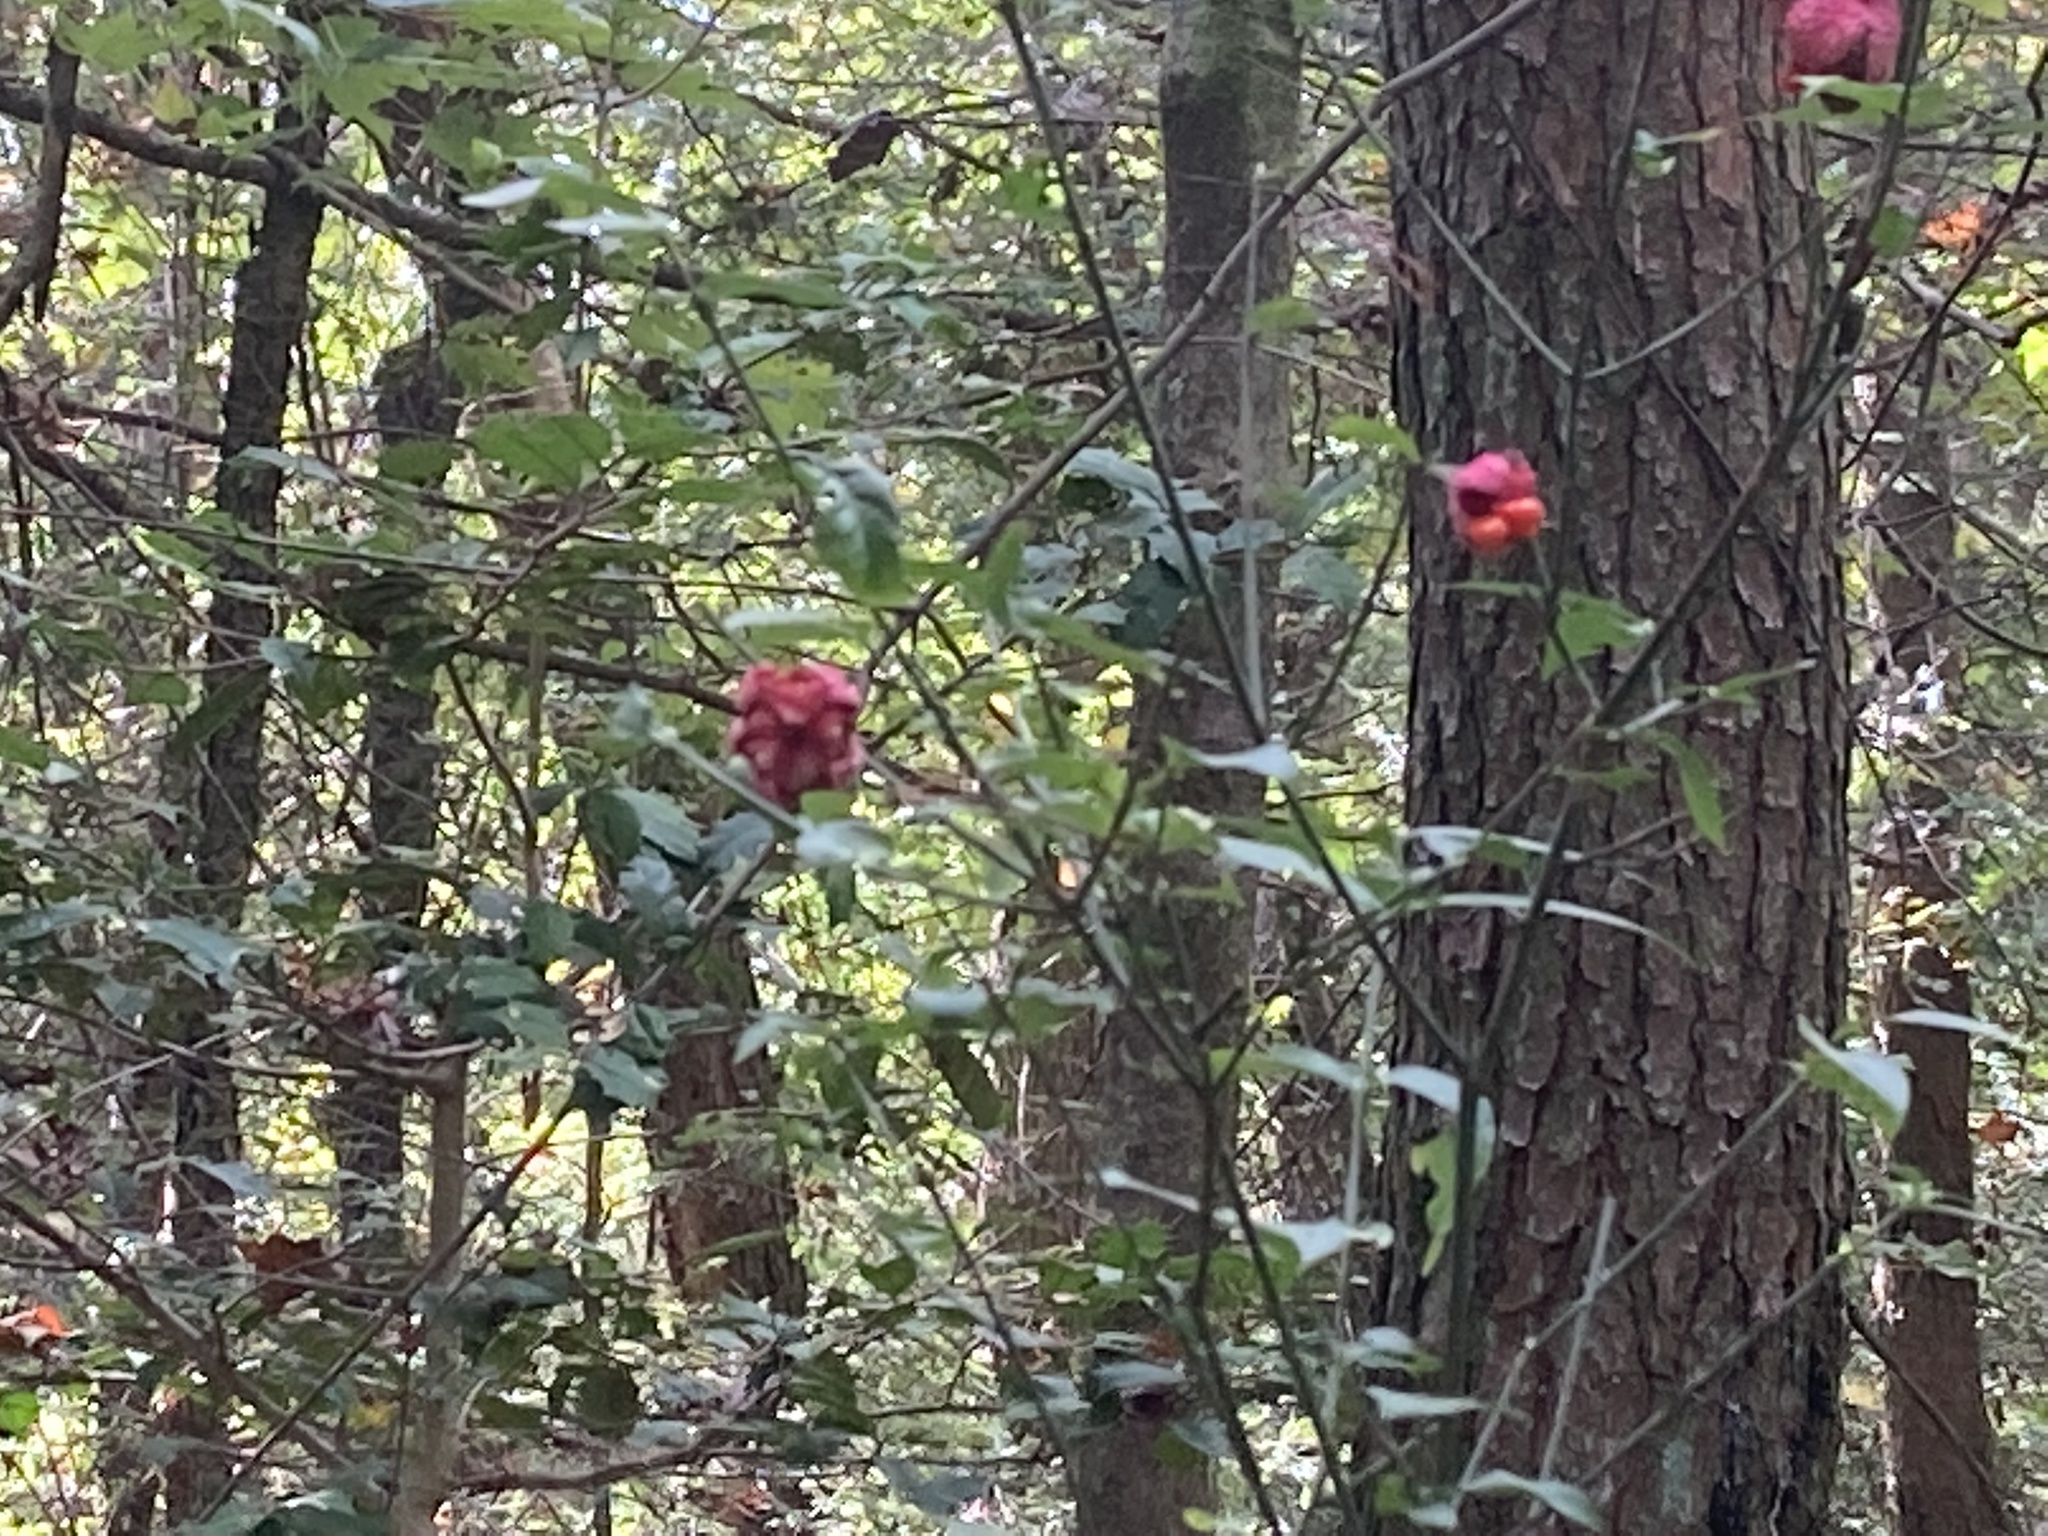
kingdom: Plantae
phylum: Tracheophyta
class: Magnoliopsida
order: Celastrales
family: Celastraceae
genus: Euonymus
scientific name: Euonymus americanus
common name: Bursting-heart
